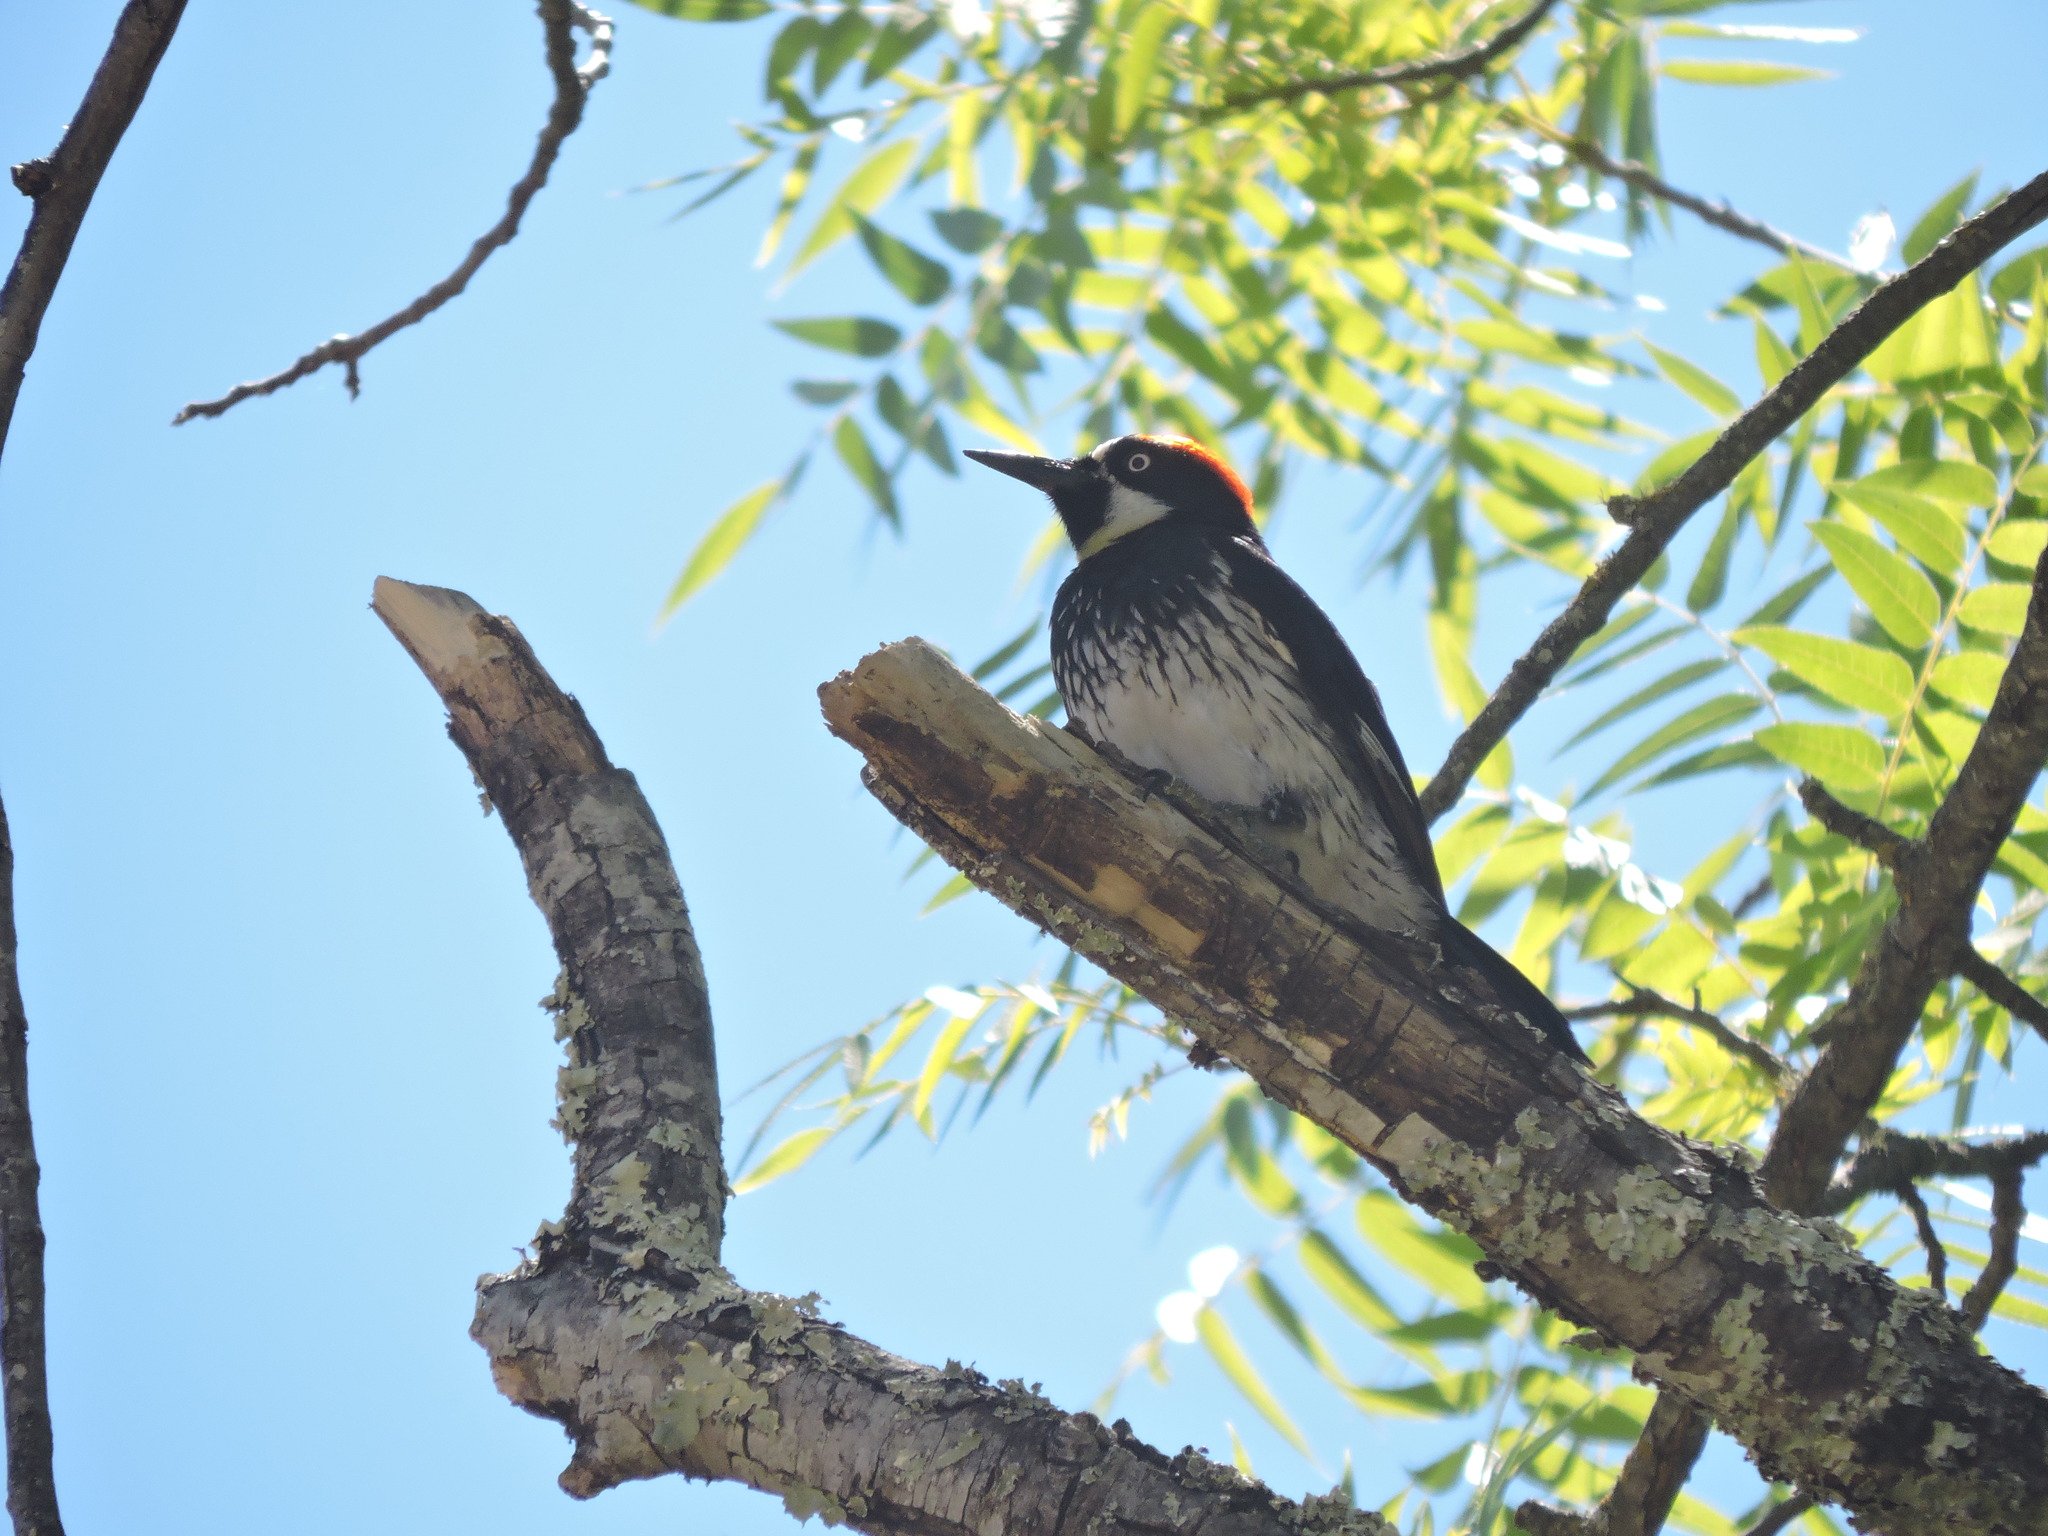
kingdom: Animalia
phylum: Chordata
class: Aves
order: Piciformes
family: Picidae
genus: Melanerpes
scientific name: Melanerpes formicivorus
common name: Acorn woodpecker
